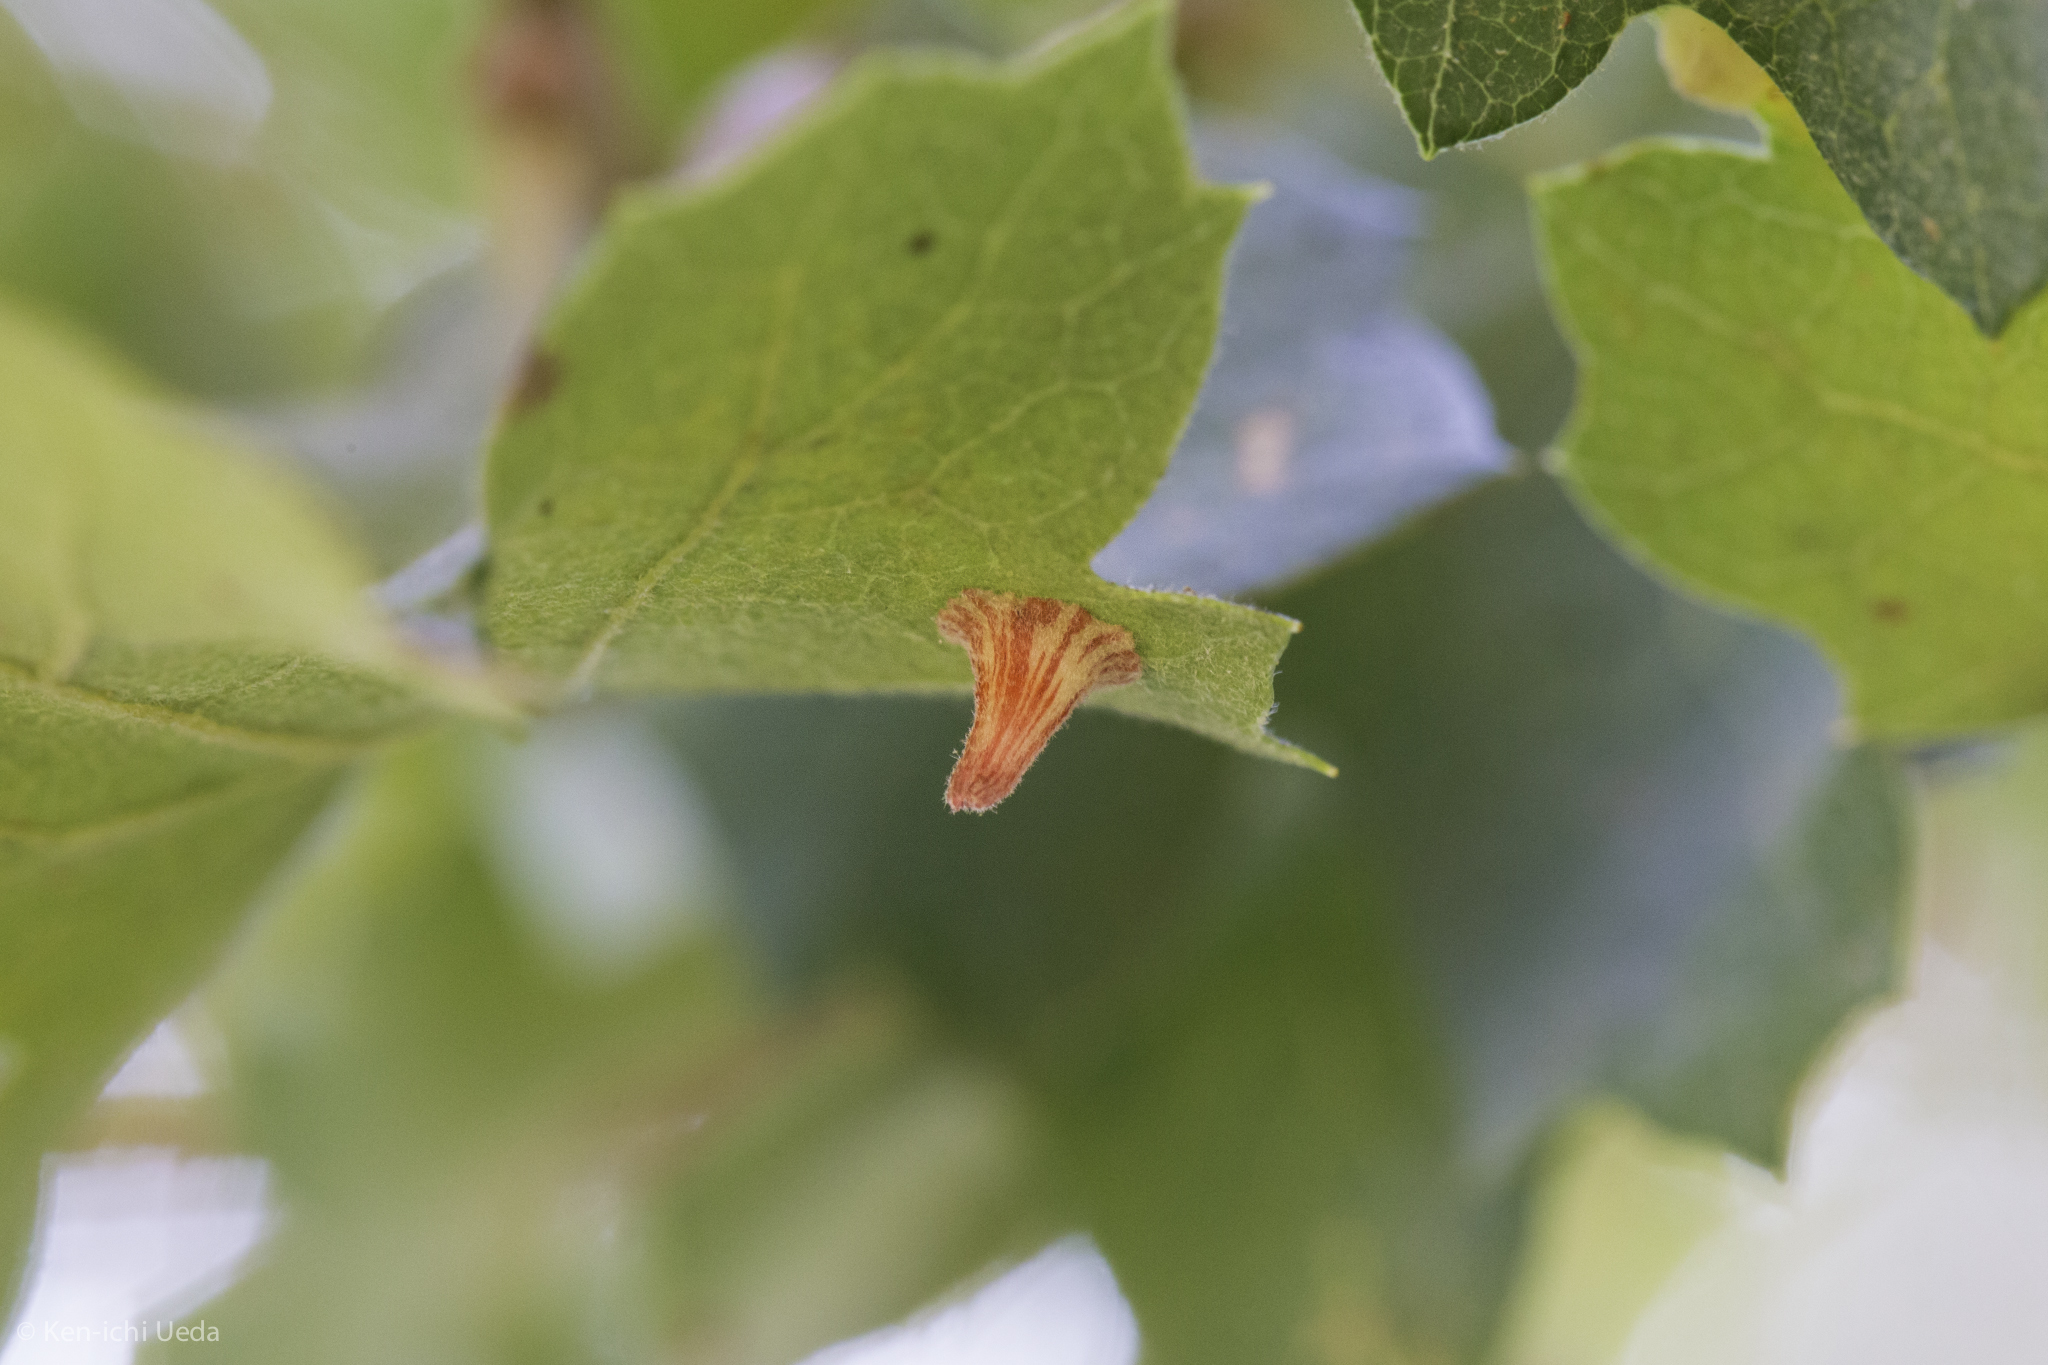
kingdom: Animalia
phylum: Arthropoda
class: Insecta
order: Hymenoptera
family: Cynipidae
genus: Andricus
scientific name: Andricus
